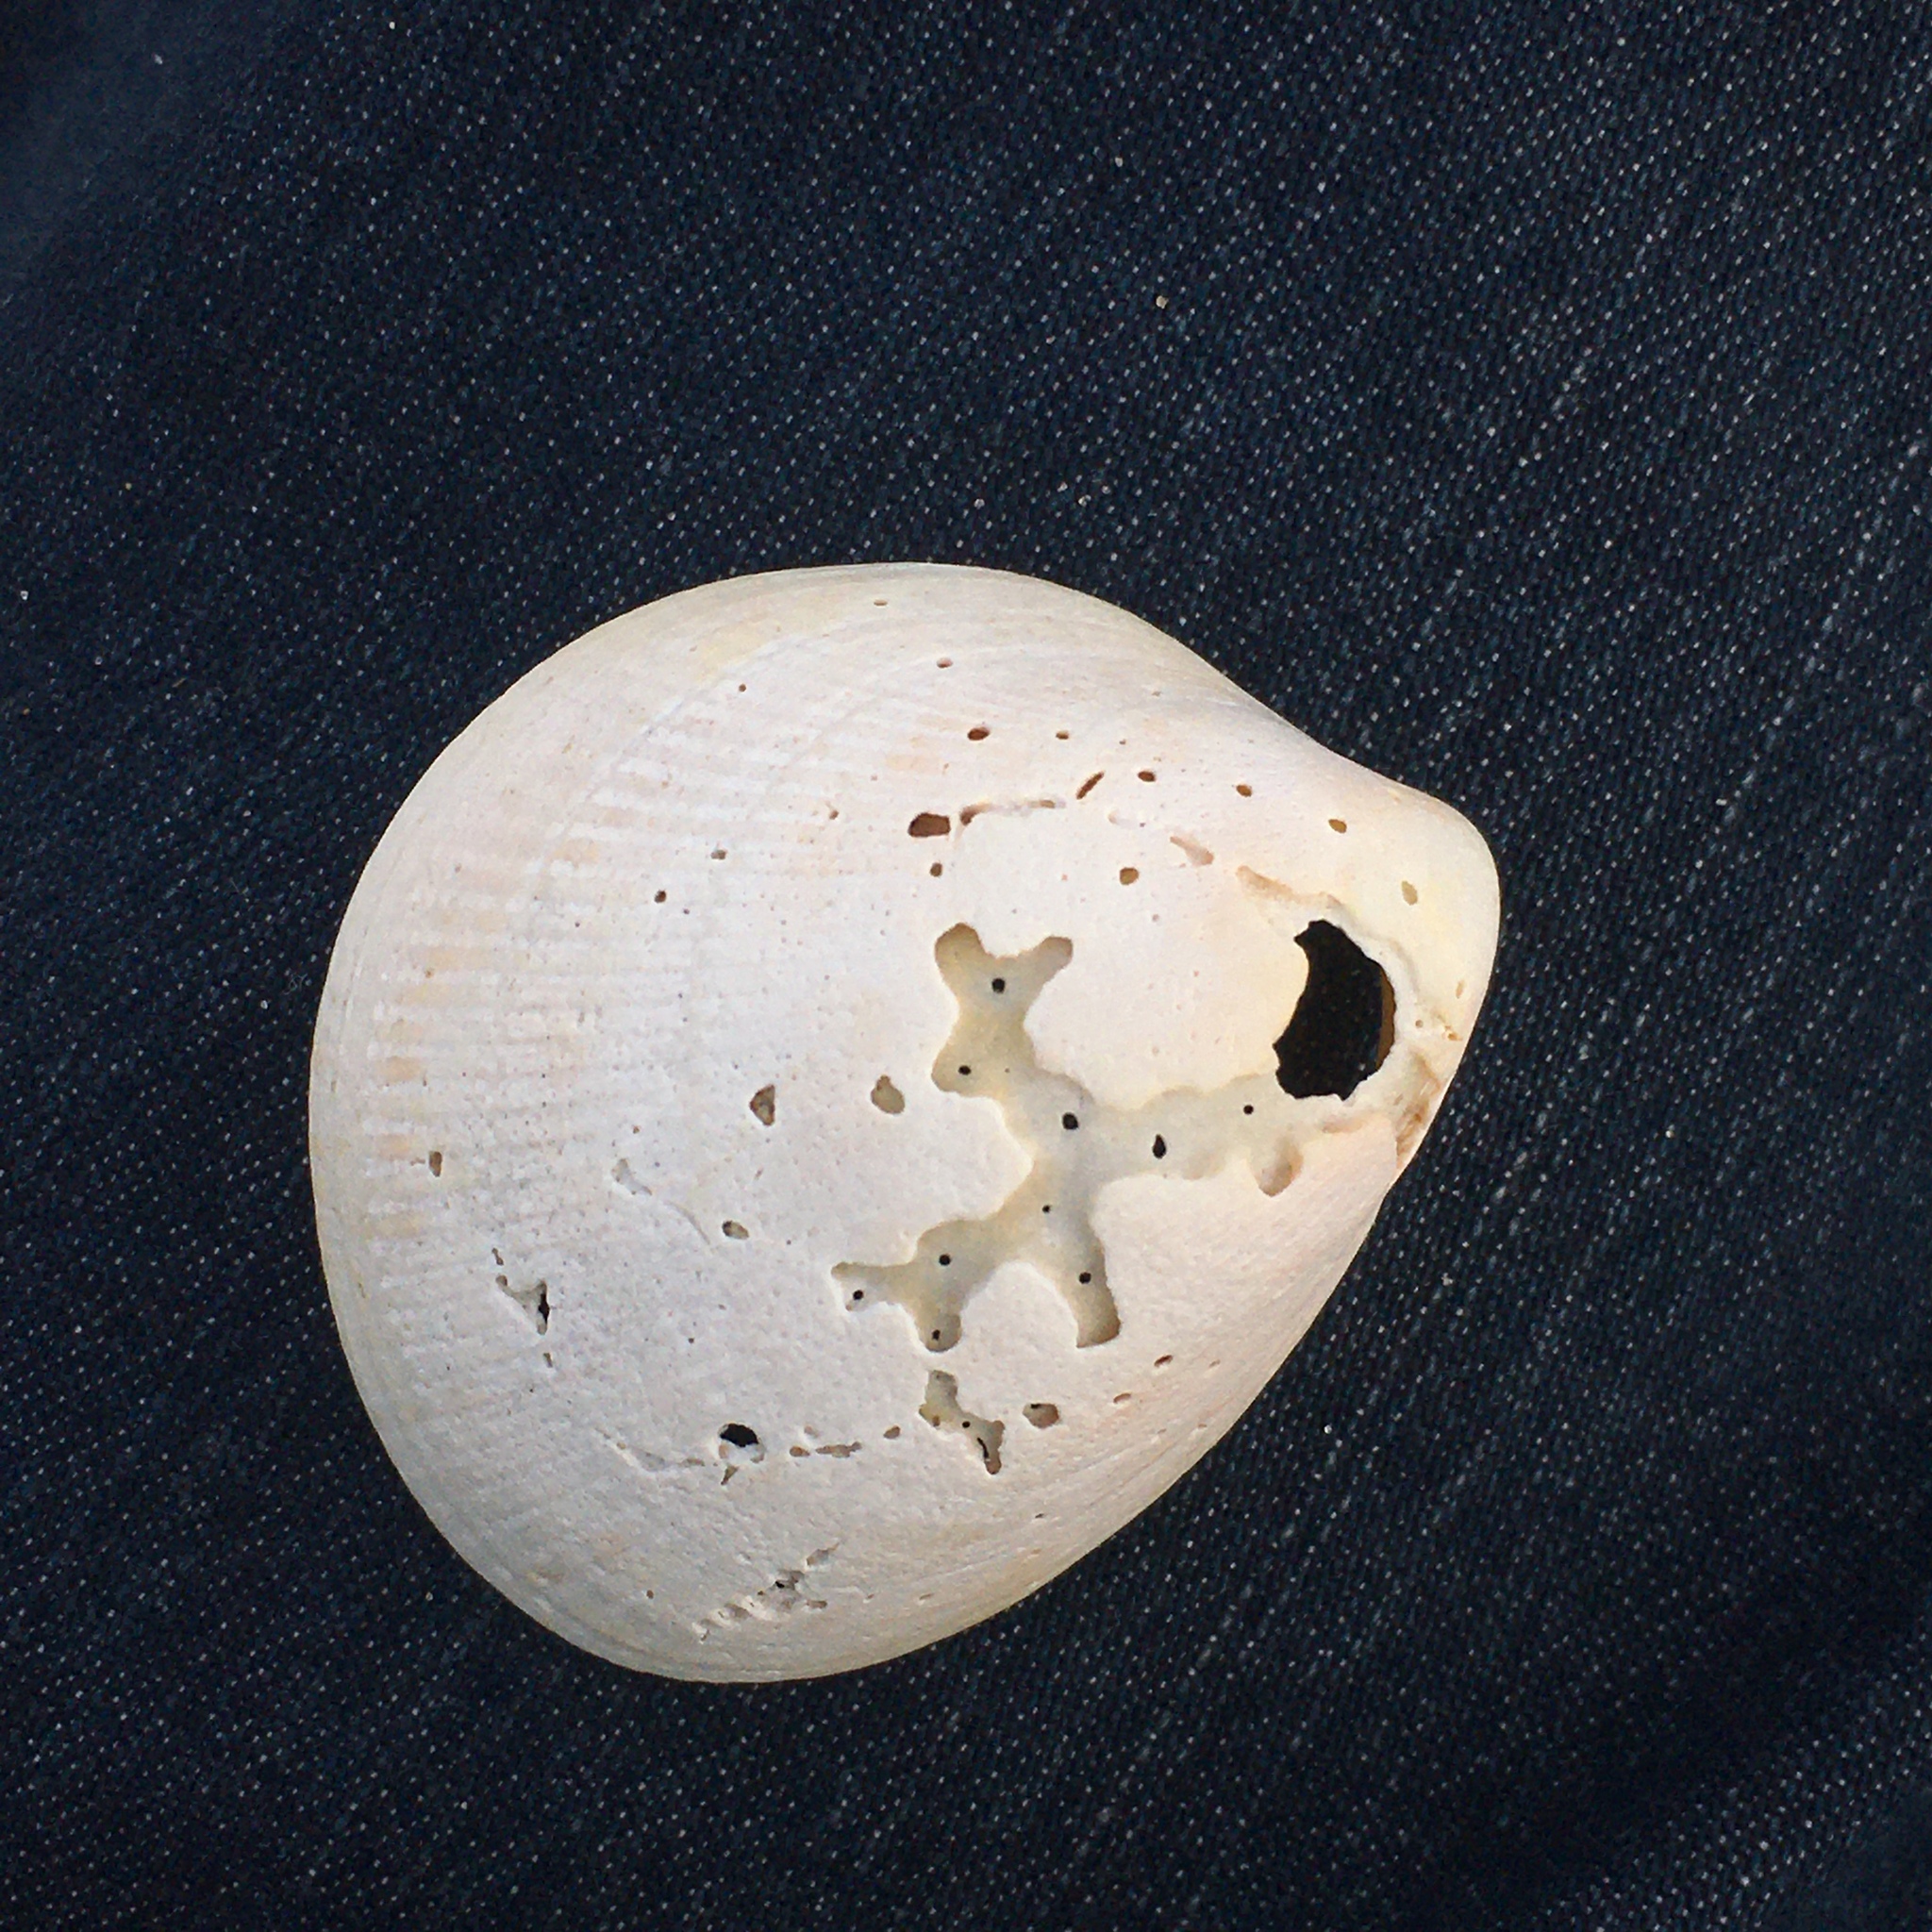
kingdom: Animalia
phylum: Mollusca
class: Bivalvia
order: Cardiida
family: Cardiidae
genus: Laevicardium
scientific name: Laevicardium crassum
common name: Norway cockle
